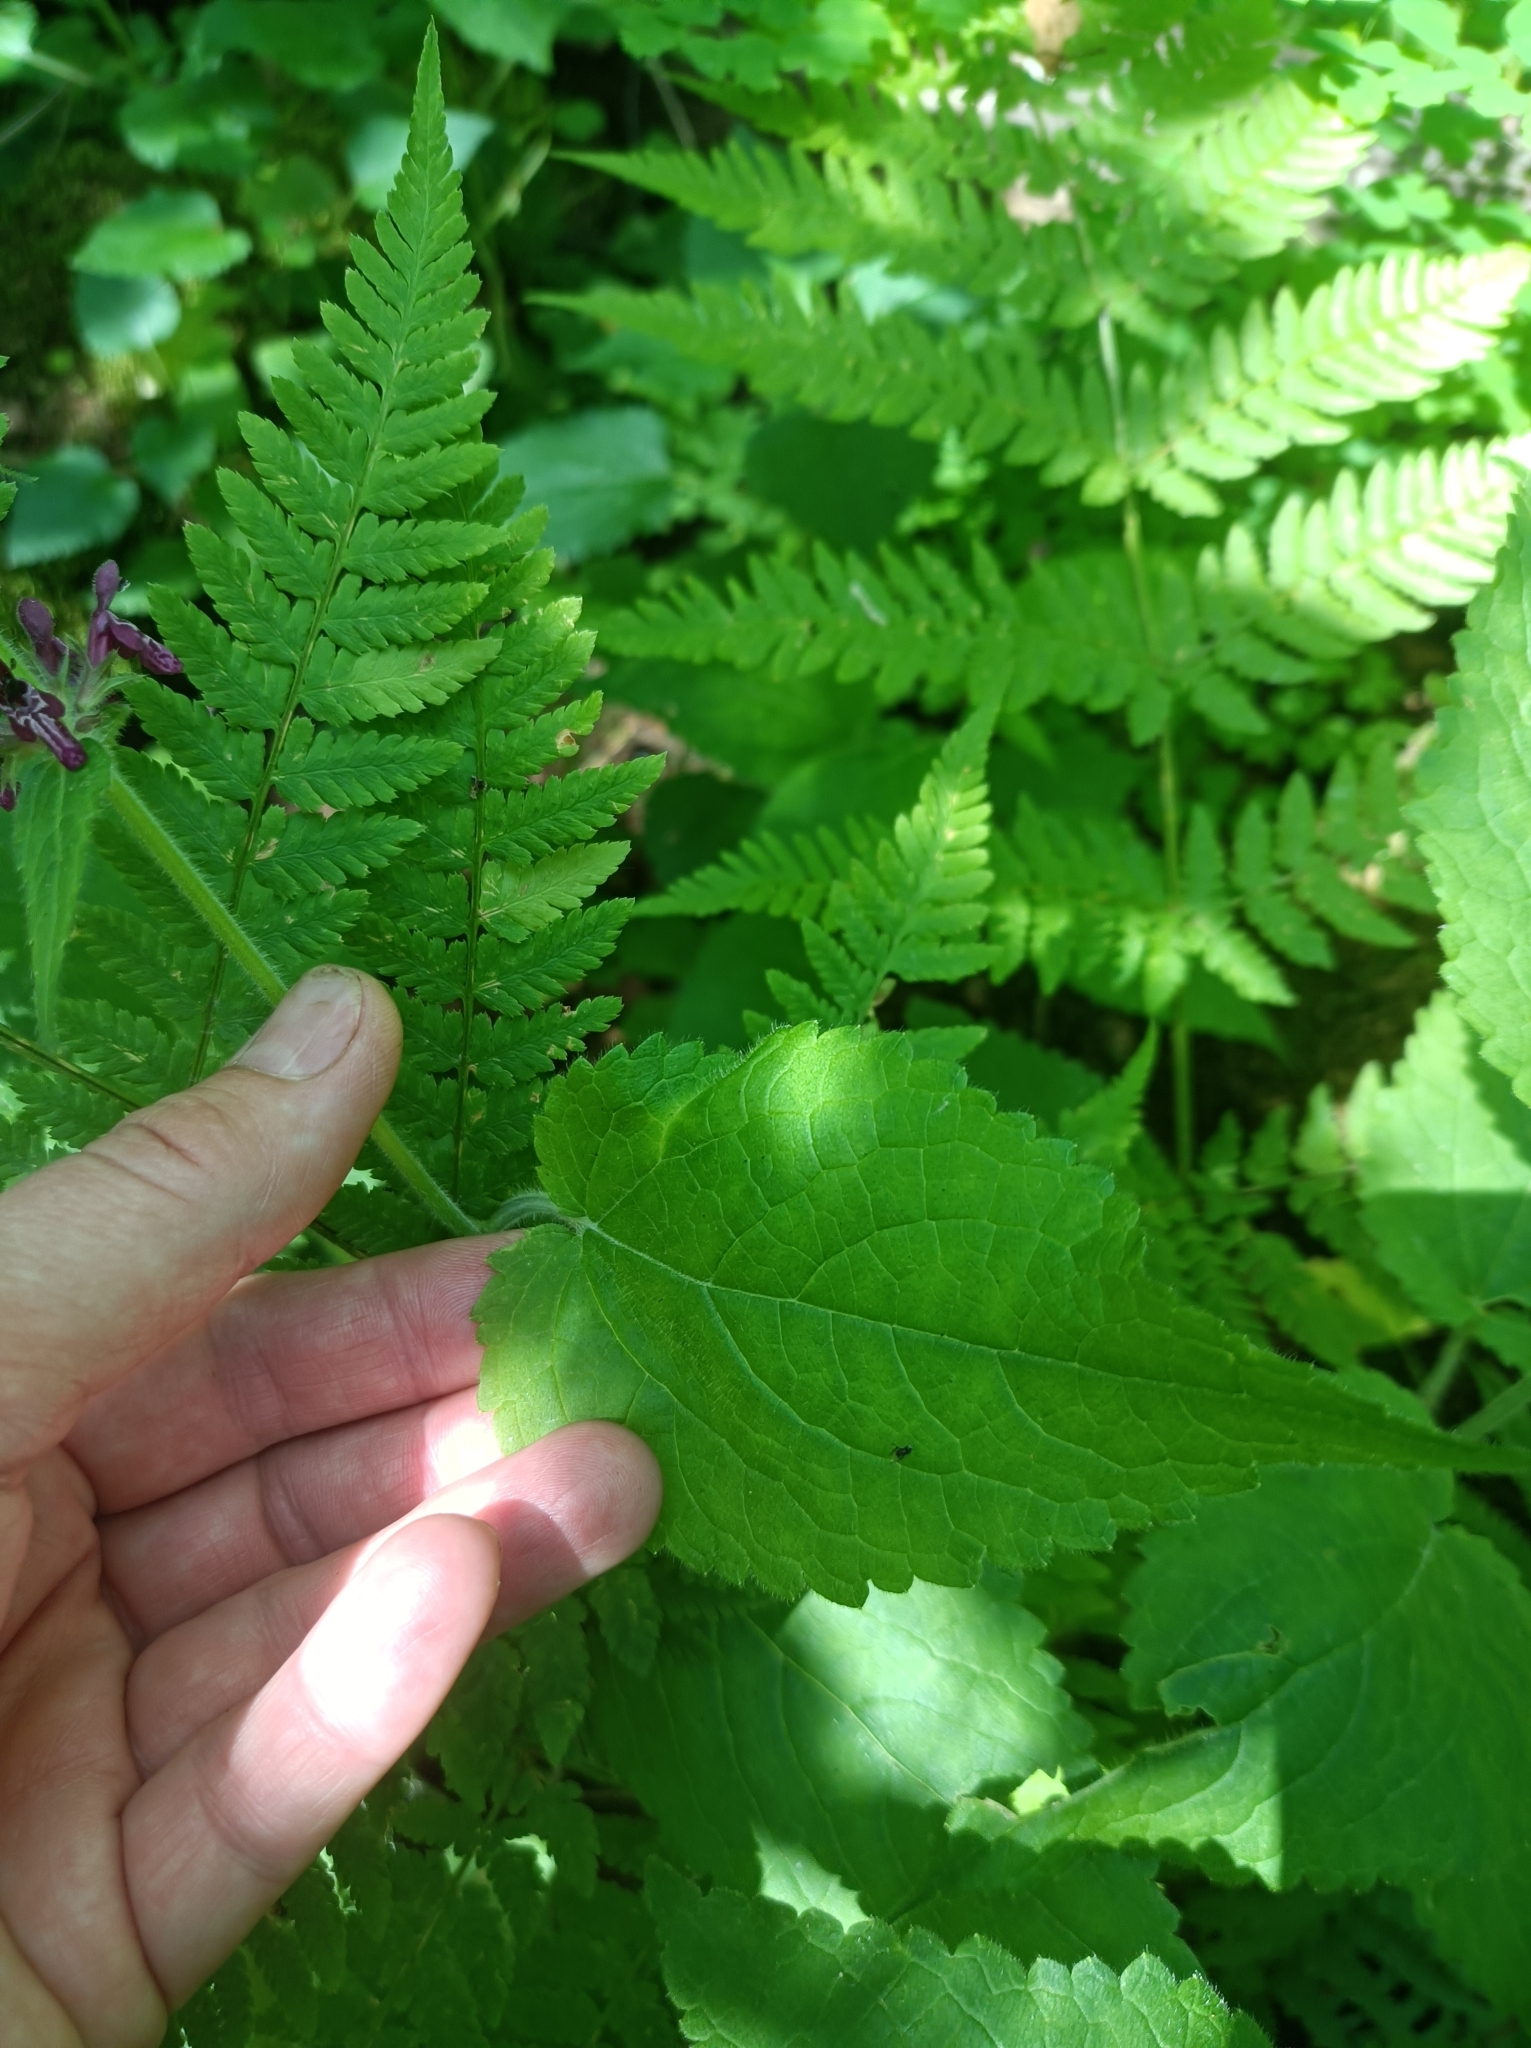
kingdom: Plantae
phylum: Tracheophyta
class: Magnoliopsida
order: Lamiales
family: Lamiaceae
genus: Stachys
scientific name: Stachys sylvatica
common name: Hedge woundwort
